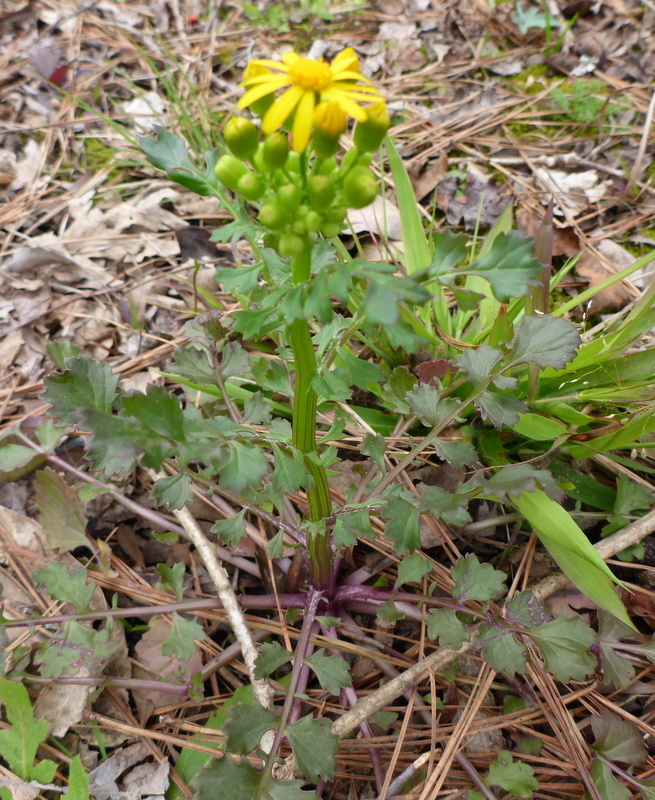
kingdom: Plantae
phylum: Tracheophyta
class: Magnoliopsida
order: Asterales
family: Asteraceae
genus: Packera
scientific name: Packera glabella
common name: Butterweed
